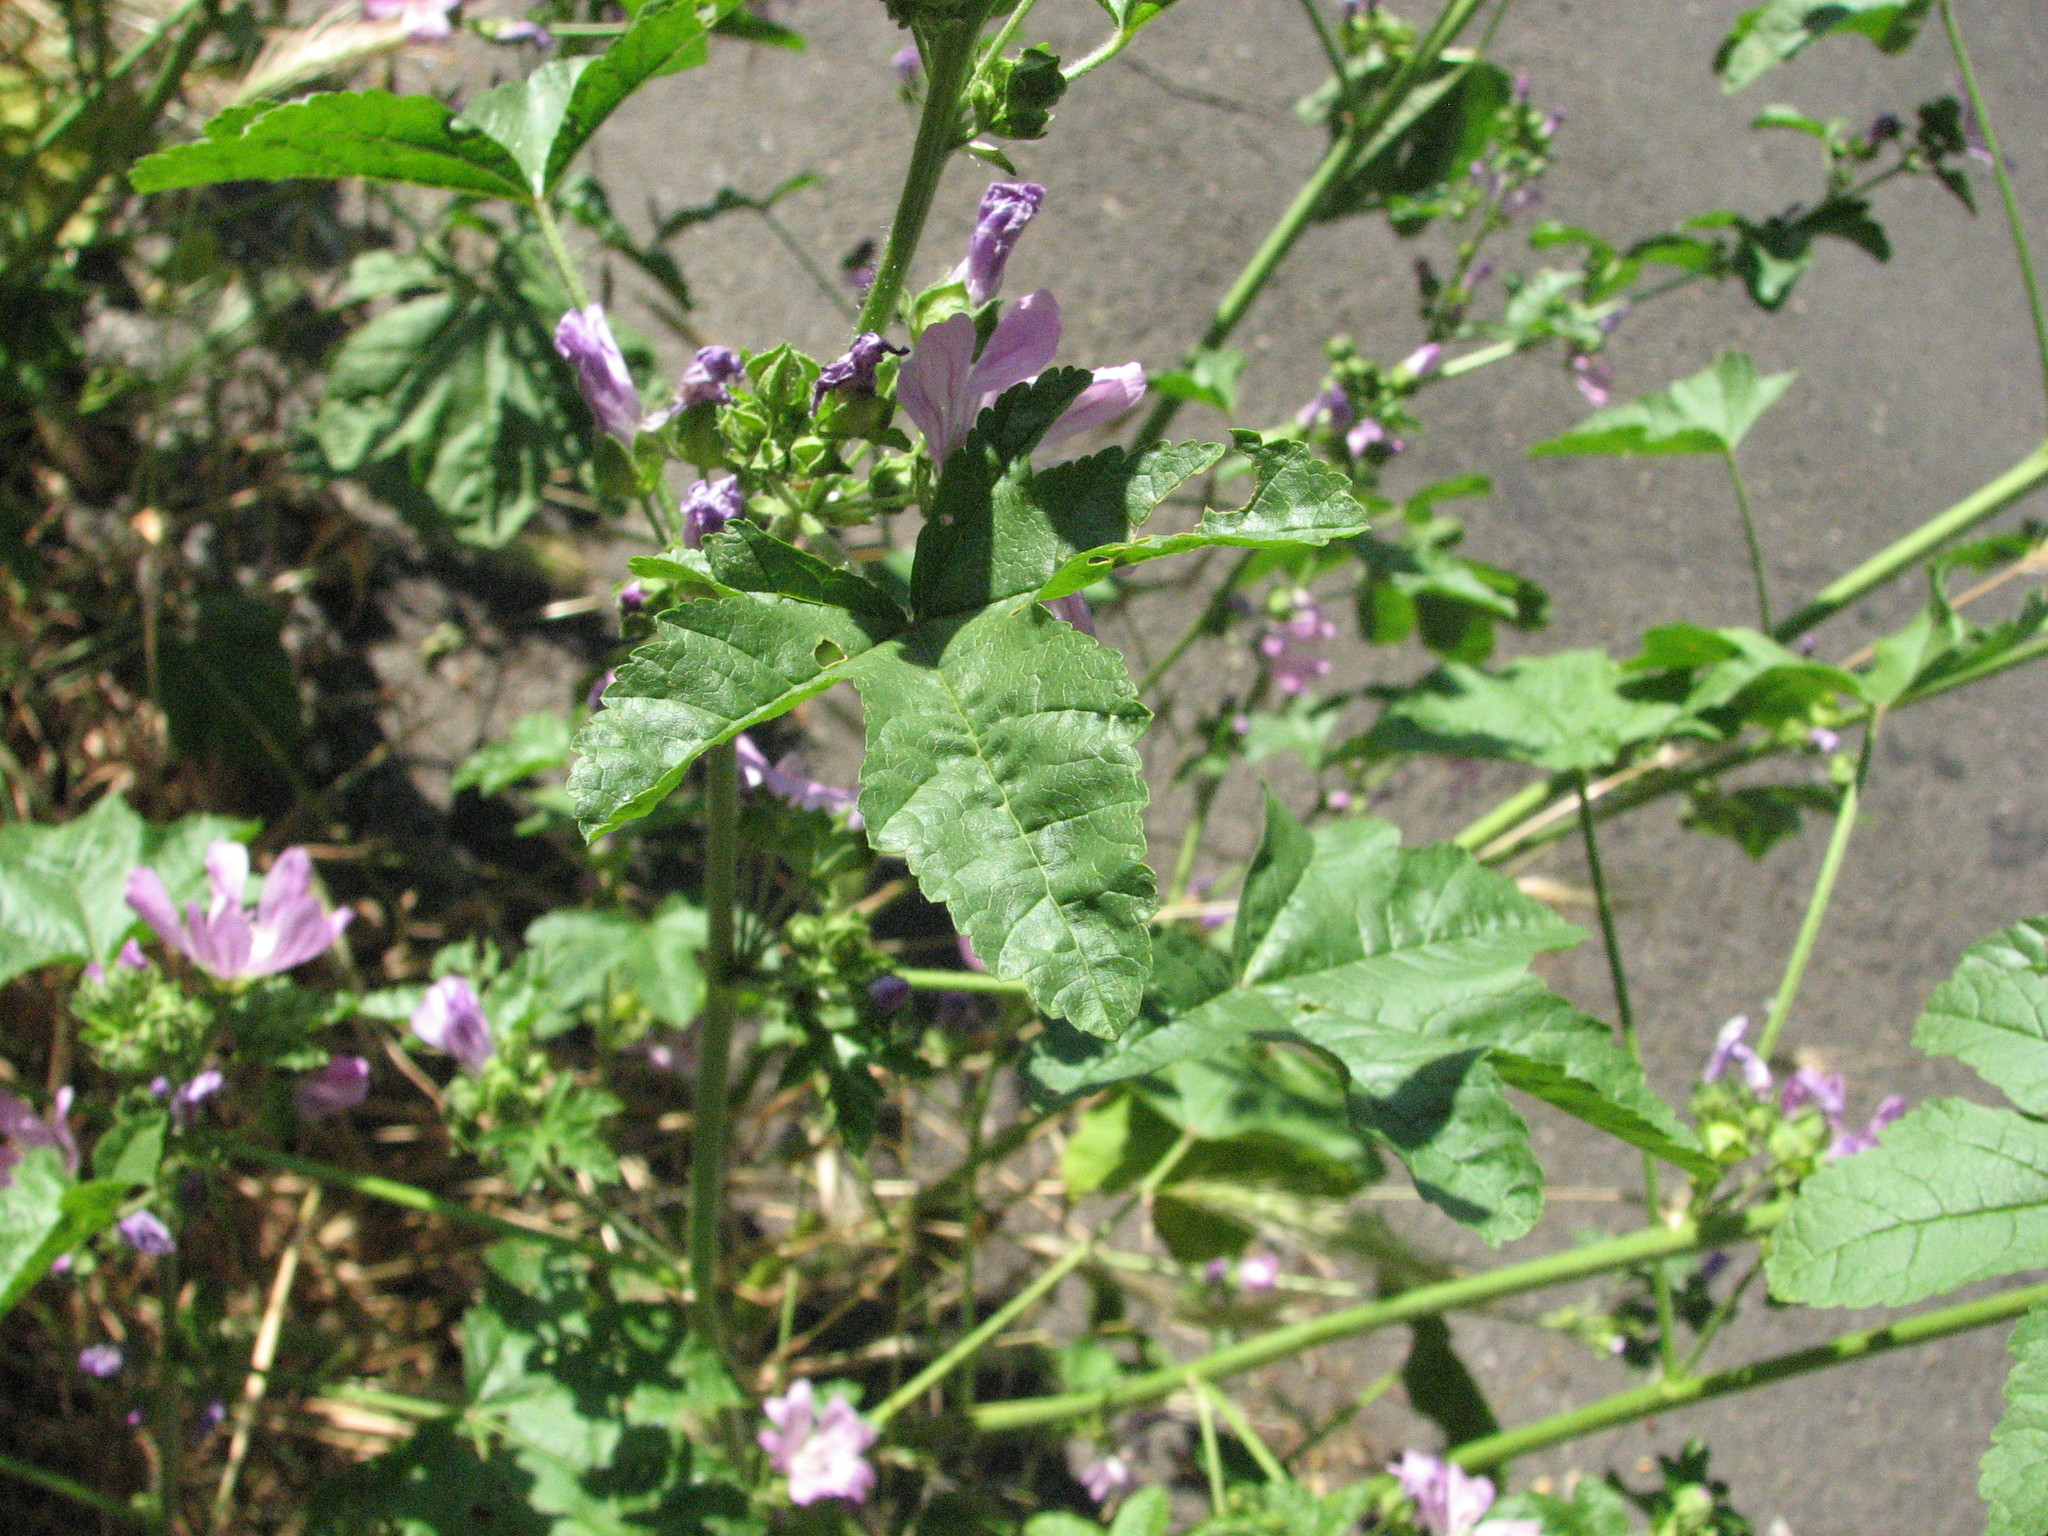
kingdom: Plantae
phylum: Tracheophyta
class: Magnoliopsida
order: Malvales
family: Malvaceae
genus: Malva
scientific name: Malva sylvestris
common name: Common mallow
